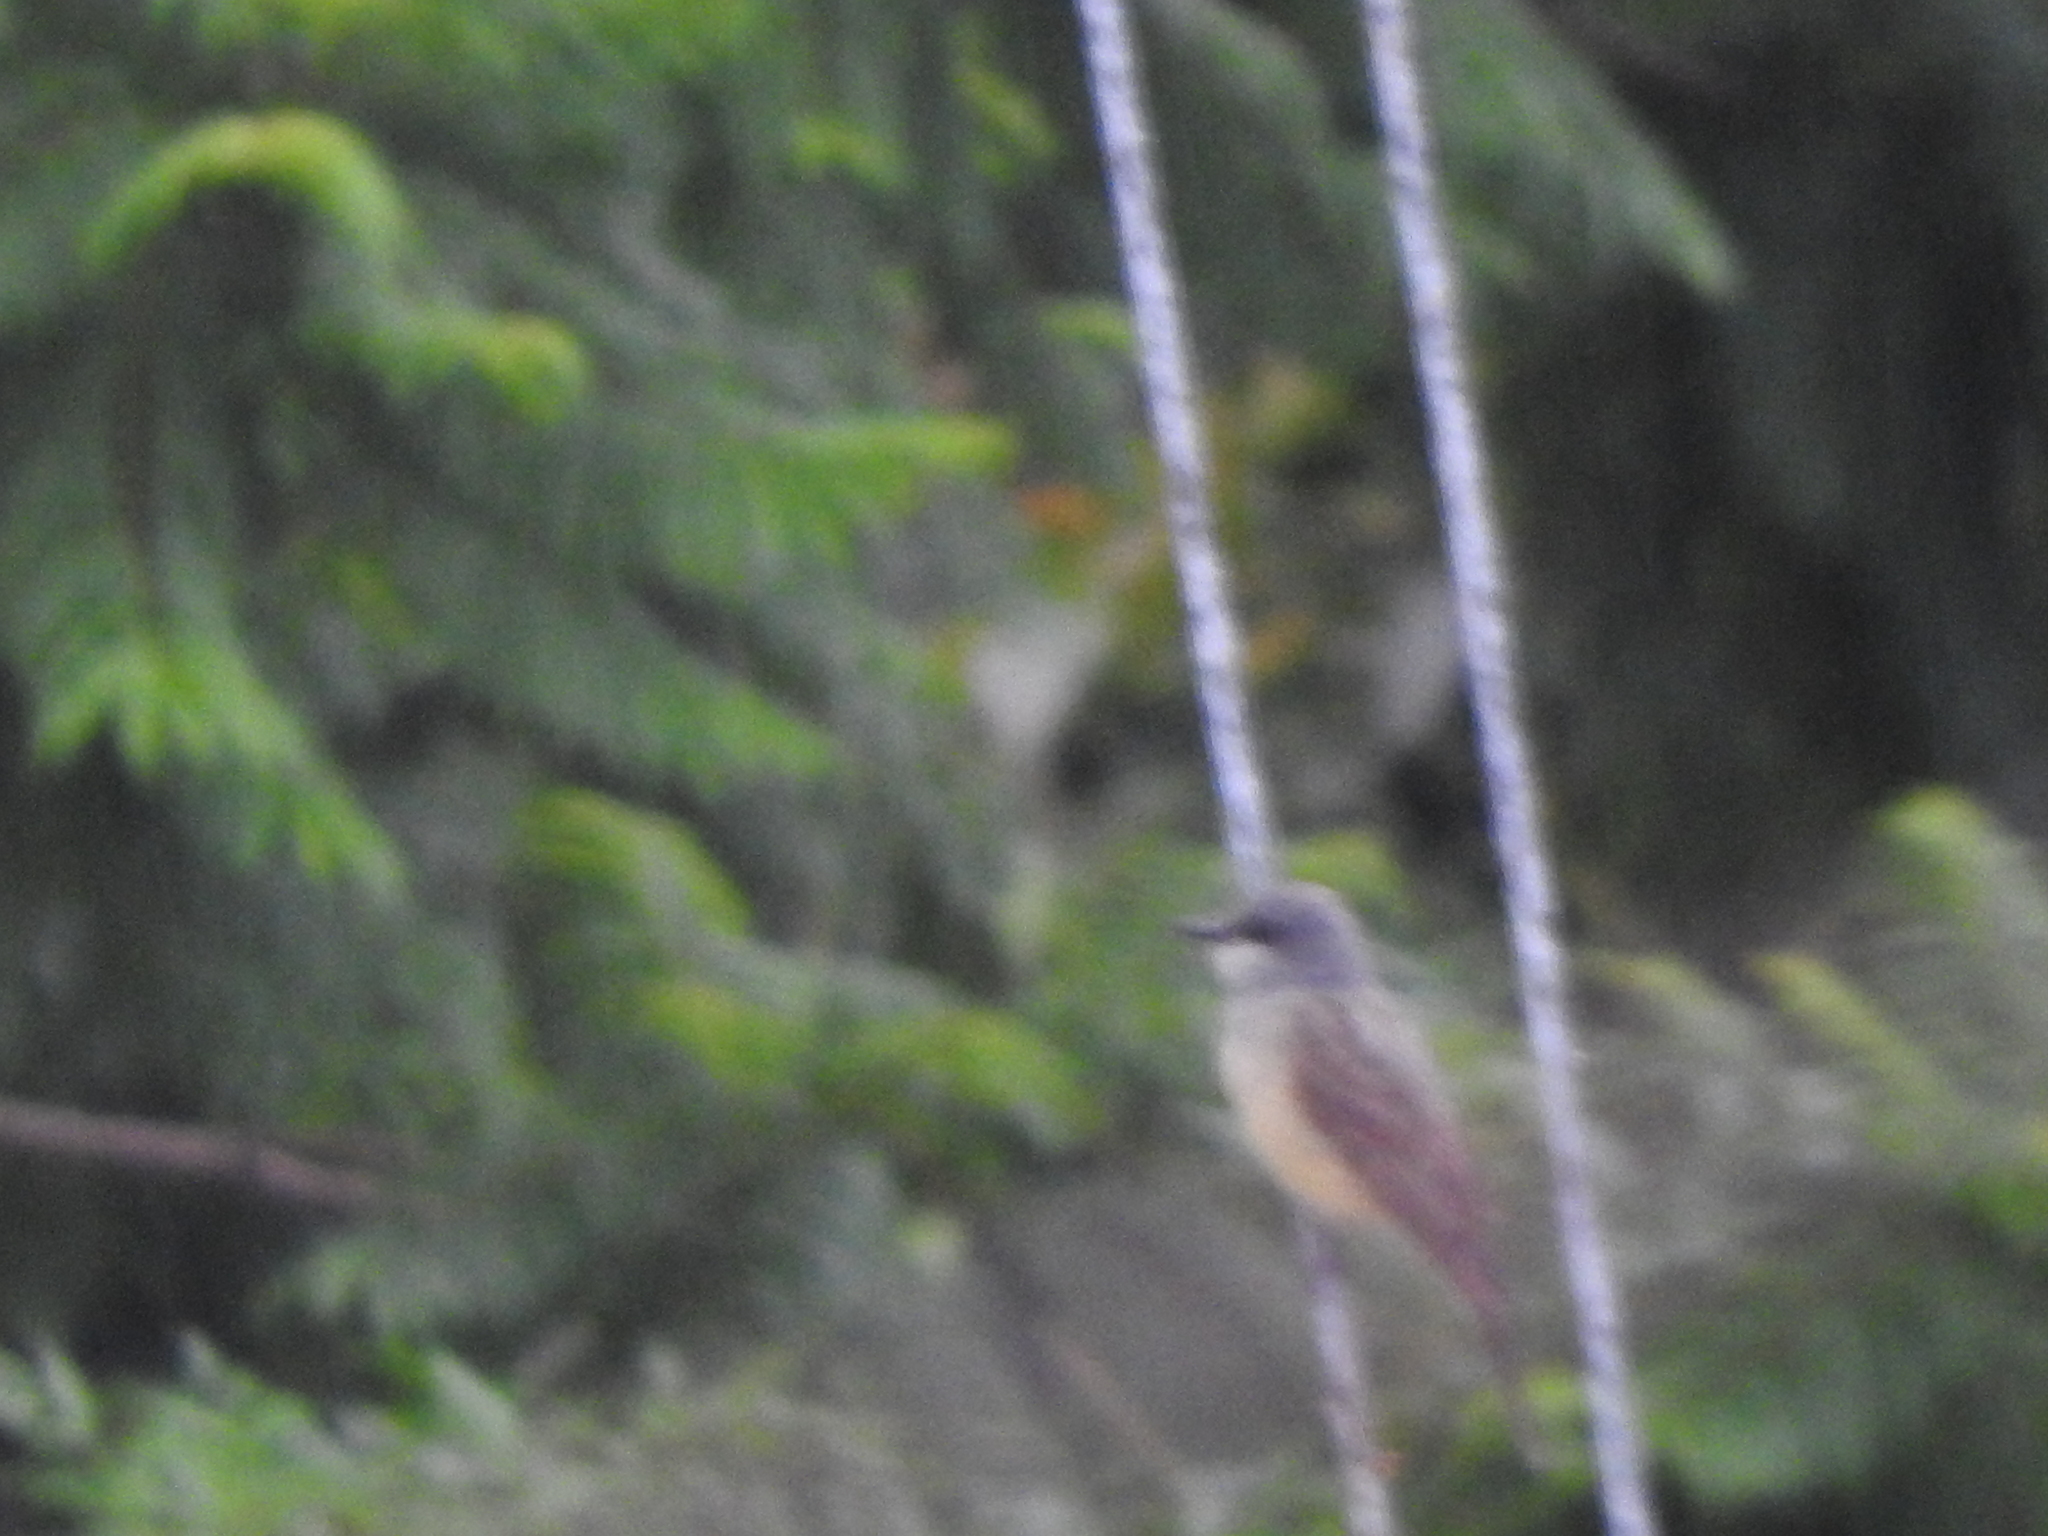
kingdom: Animalia
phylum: Chordata
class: Aves
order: Passeriformes
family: Tyrannidae
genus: Tyrannus
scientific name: Tyrannus vociferans
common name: Cassin's kingbird
